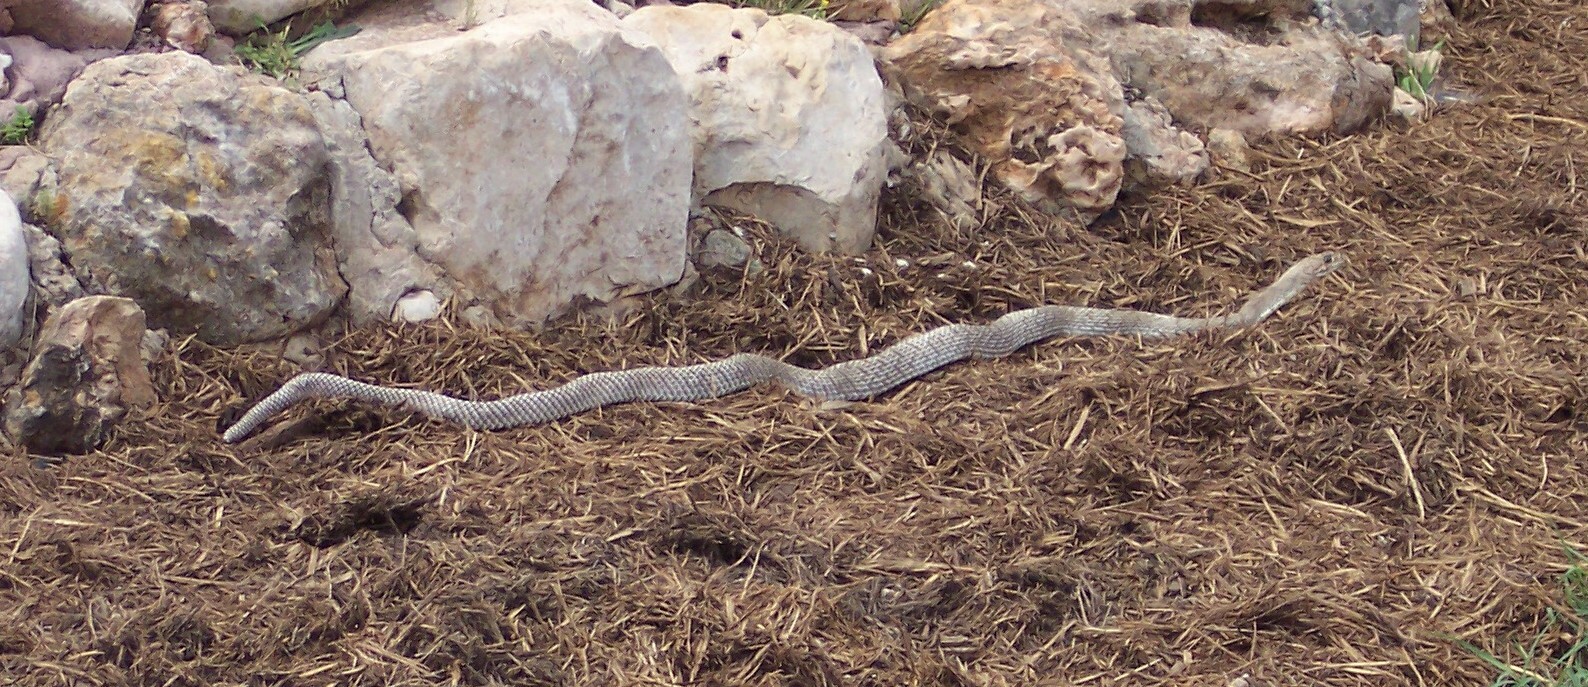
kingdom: Animalia
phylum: Chordata
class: Squamata
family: Colubridae
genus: Masticophis
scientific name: Masticophis flagellum
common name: Coachwhip
